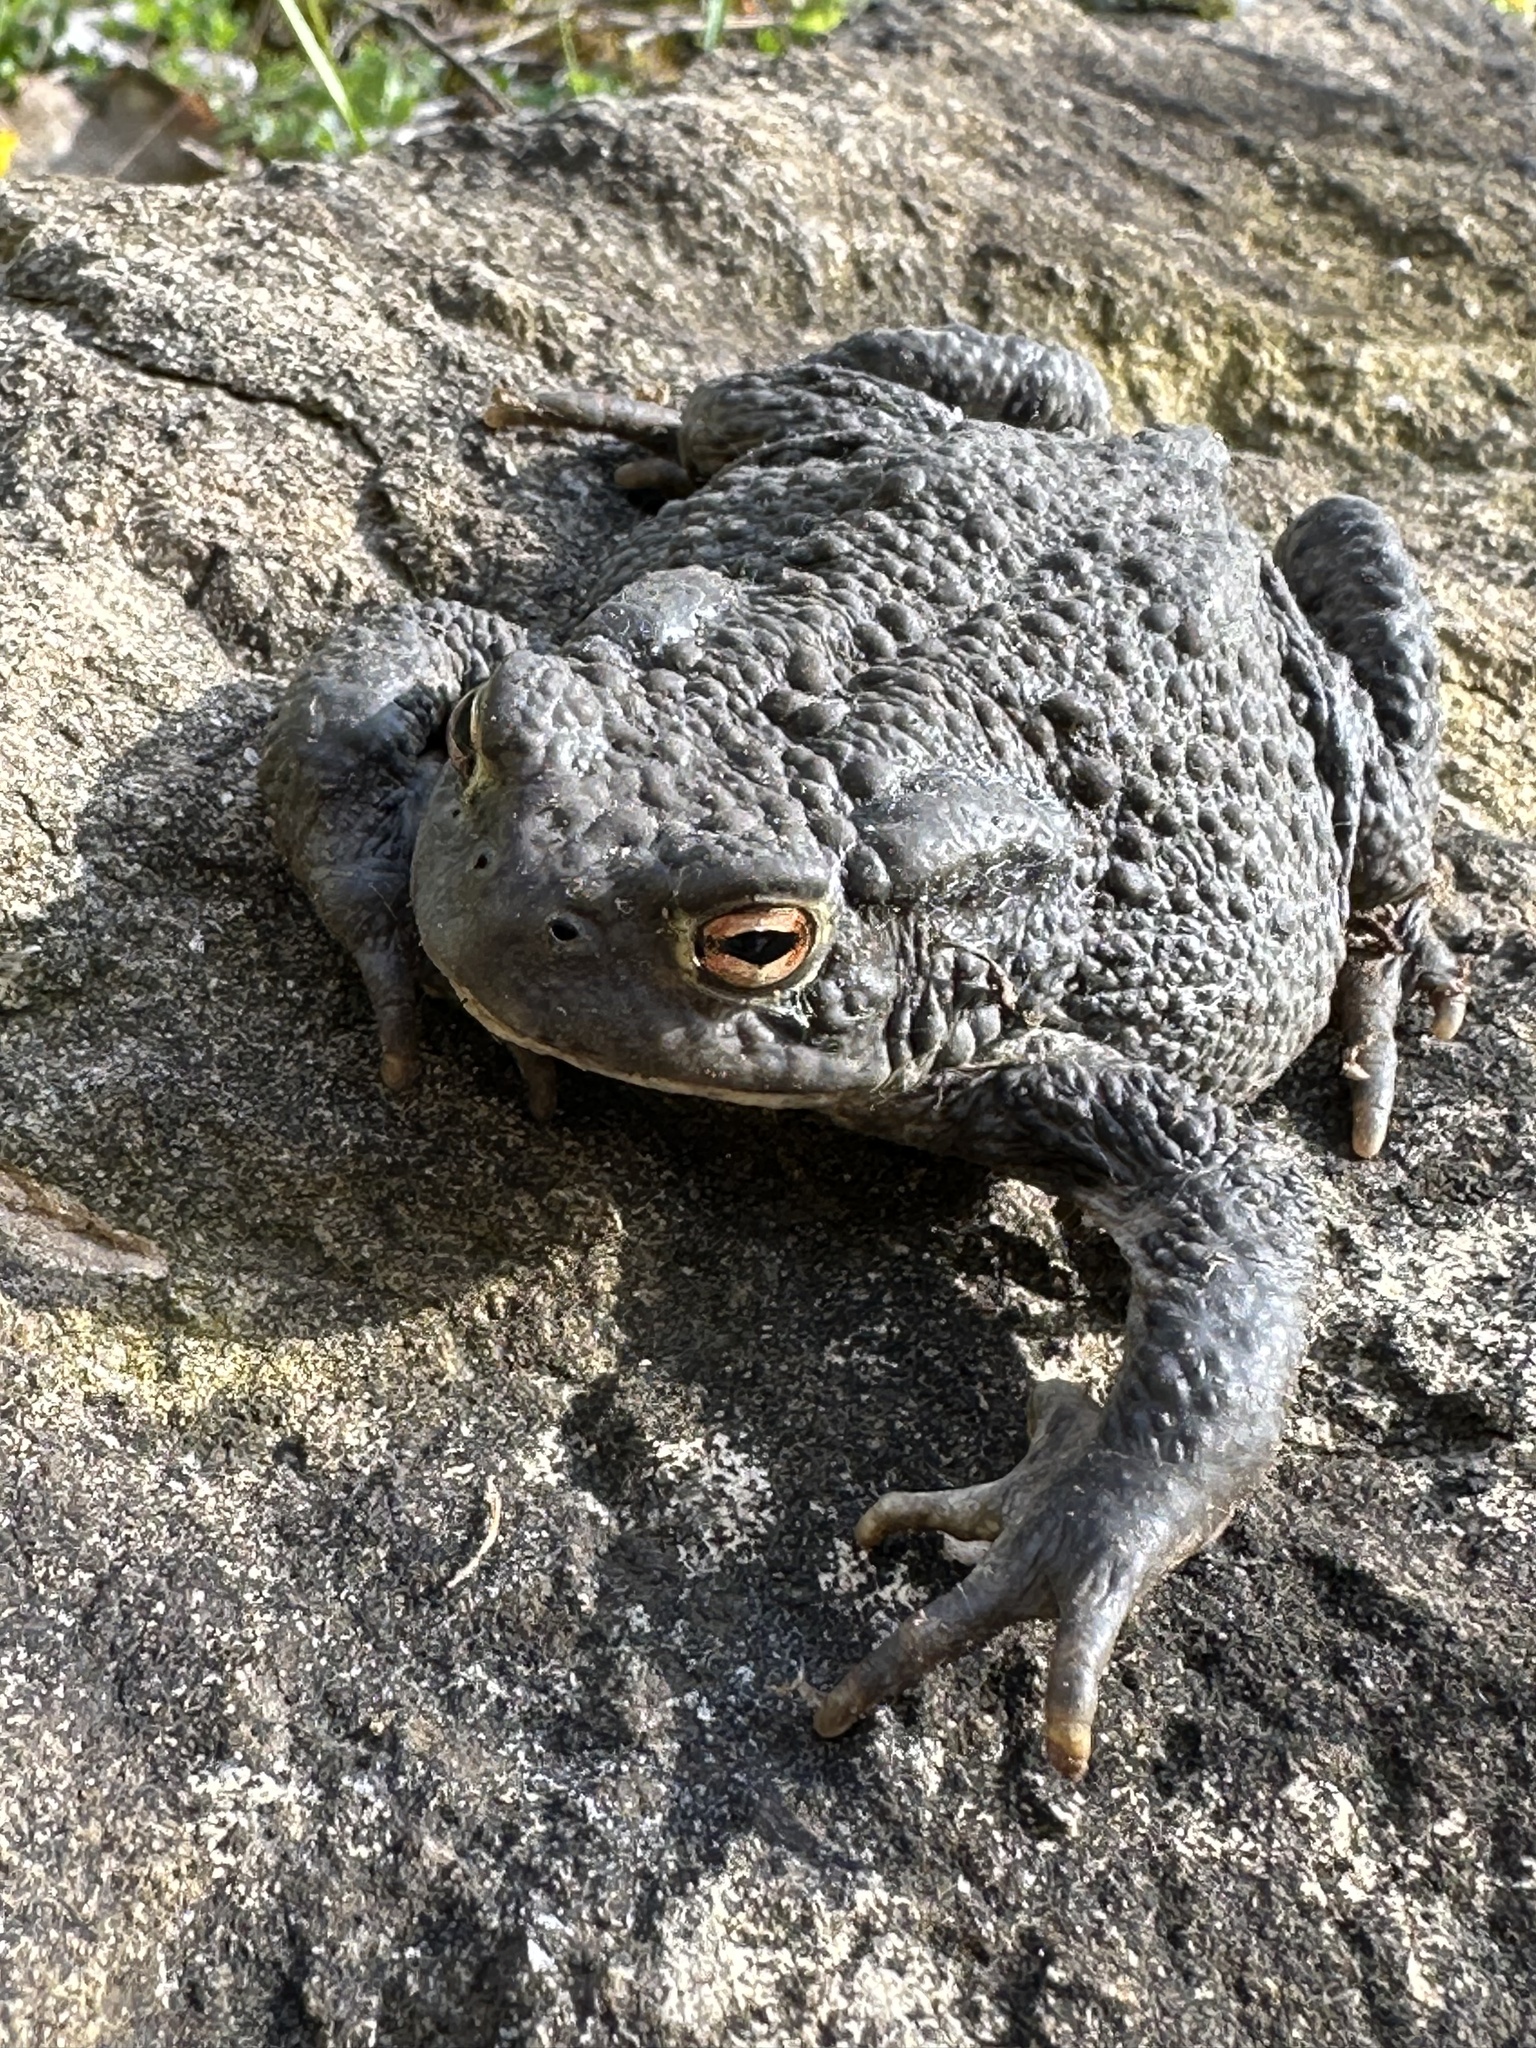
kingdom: Animalia
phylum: Chordata
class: Amphibia
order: Anura
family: Bufonidae
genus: Bufo
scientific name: Bufo bufo
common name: Common toad
